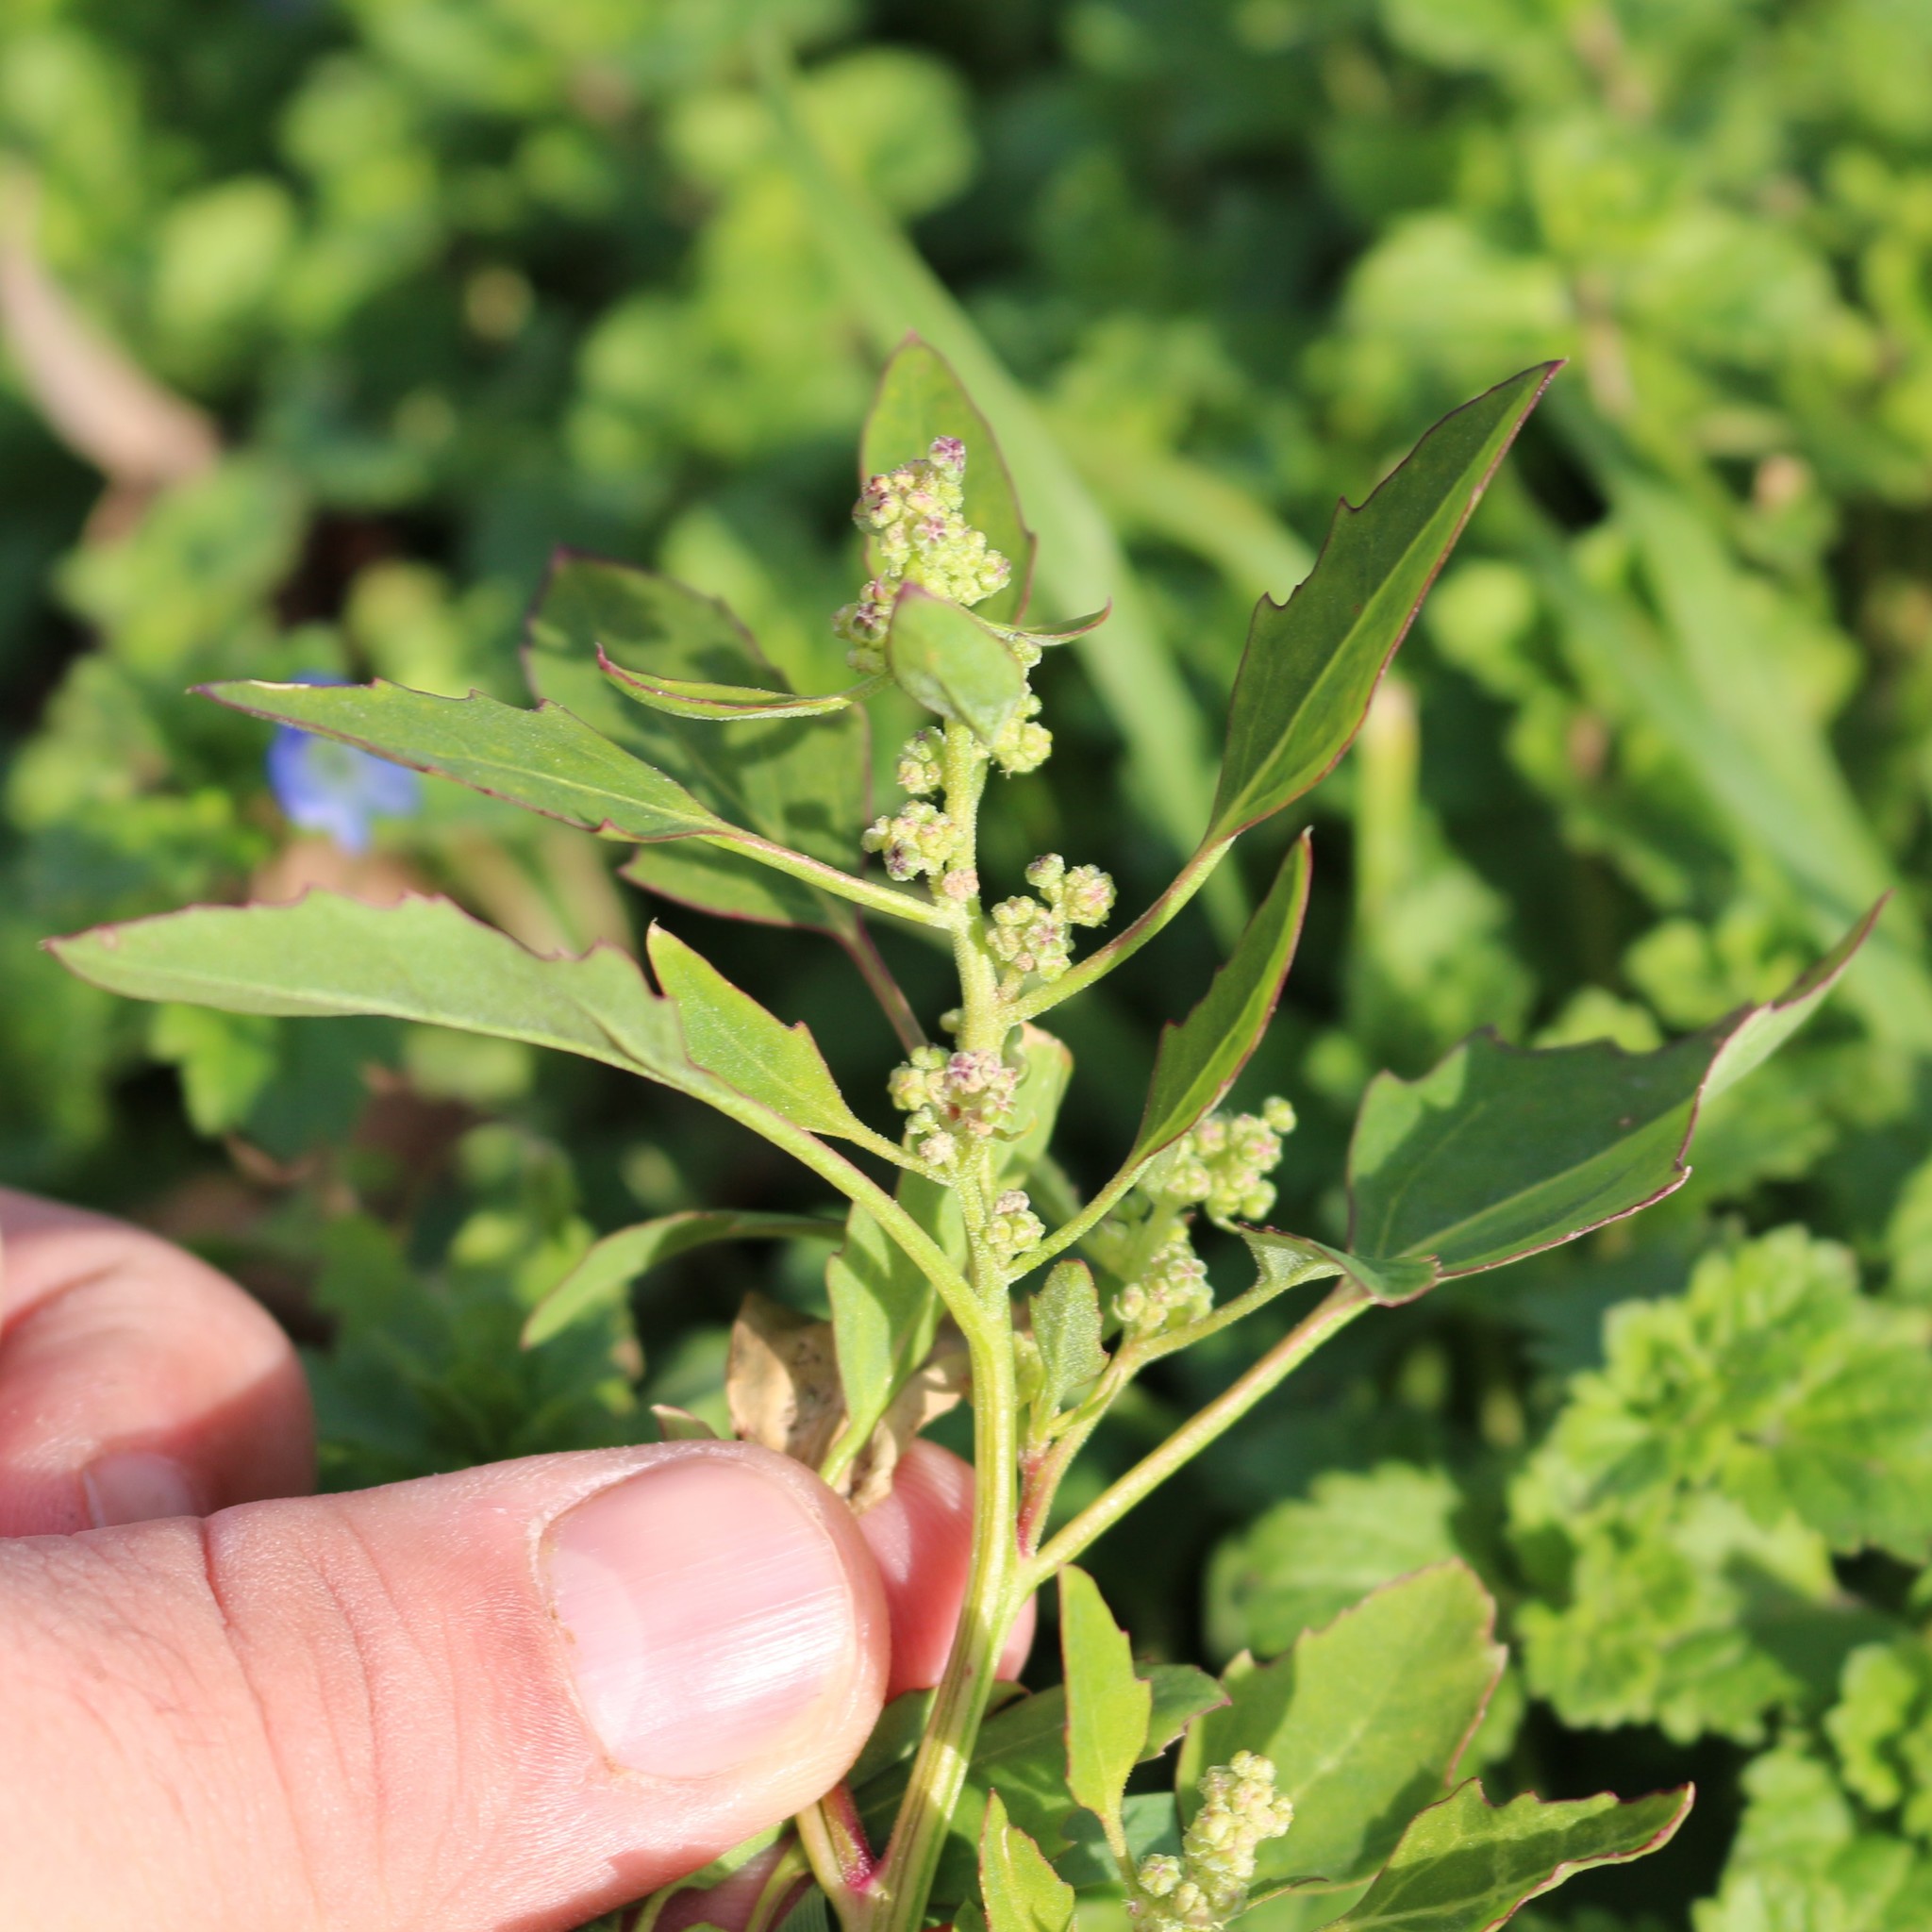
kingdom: Plantae
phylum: Tracheophyta
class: Magnoliopsida
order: Caryophyllales
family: Amaranthaceae
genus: Chenopodium
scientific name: Chenopodium album
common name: Fat-hen
